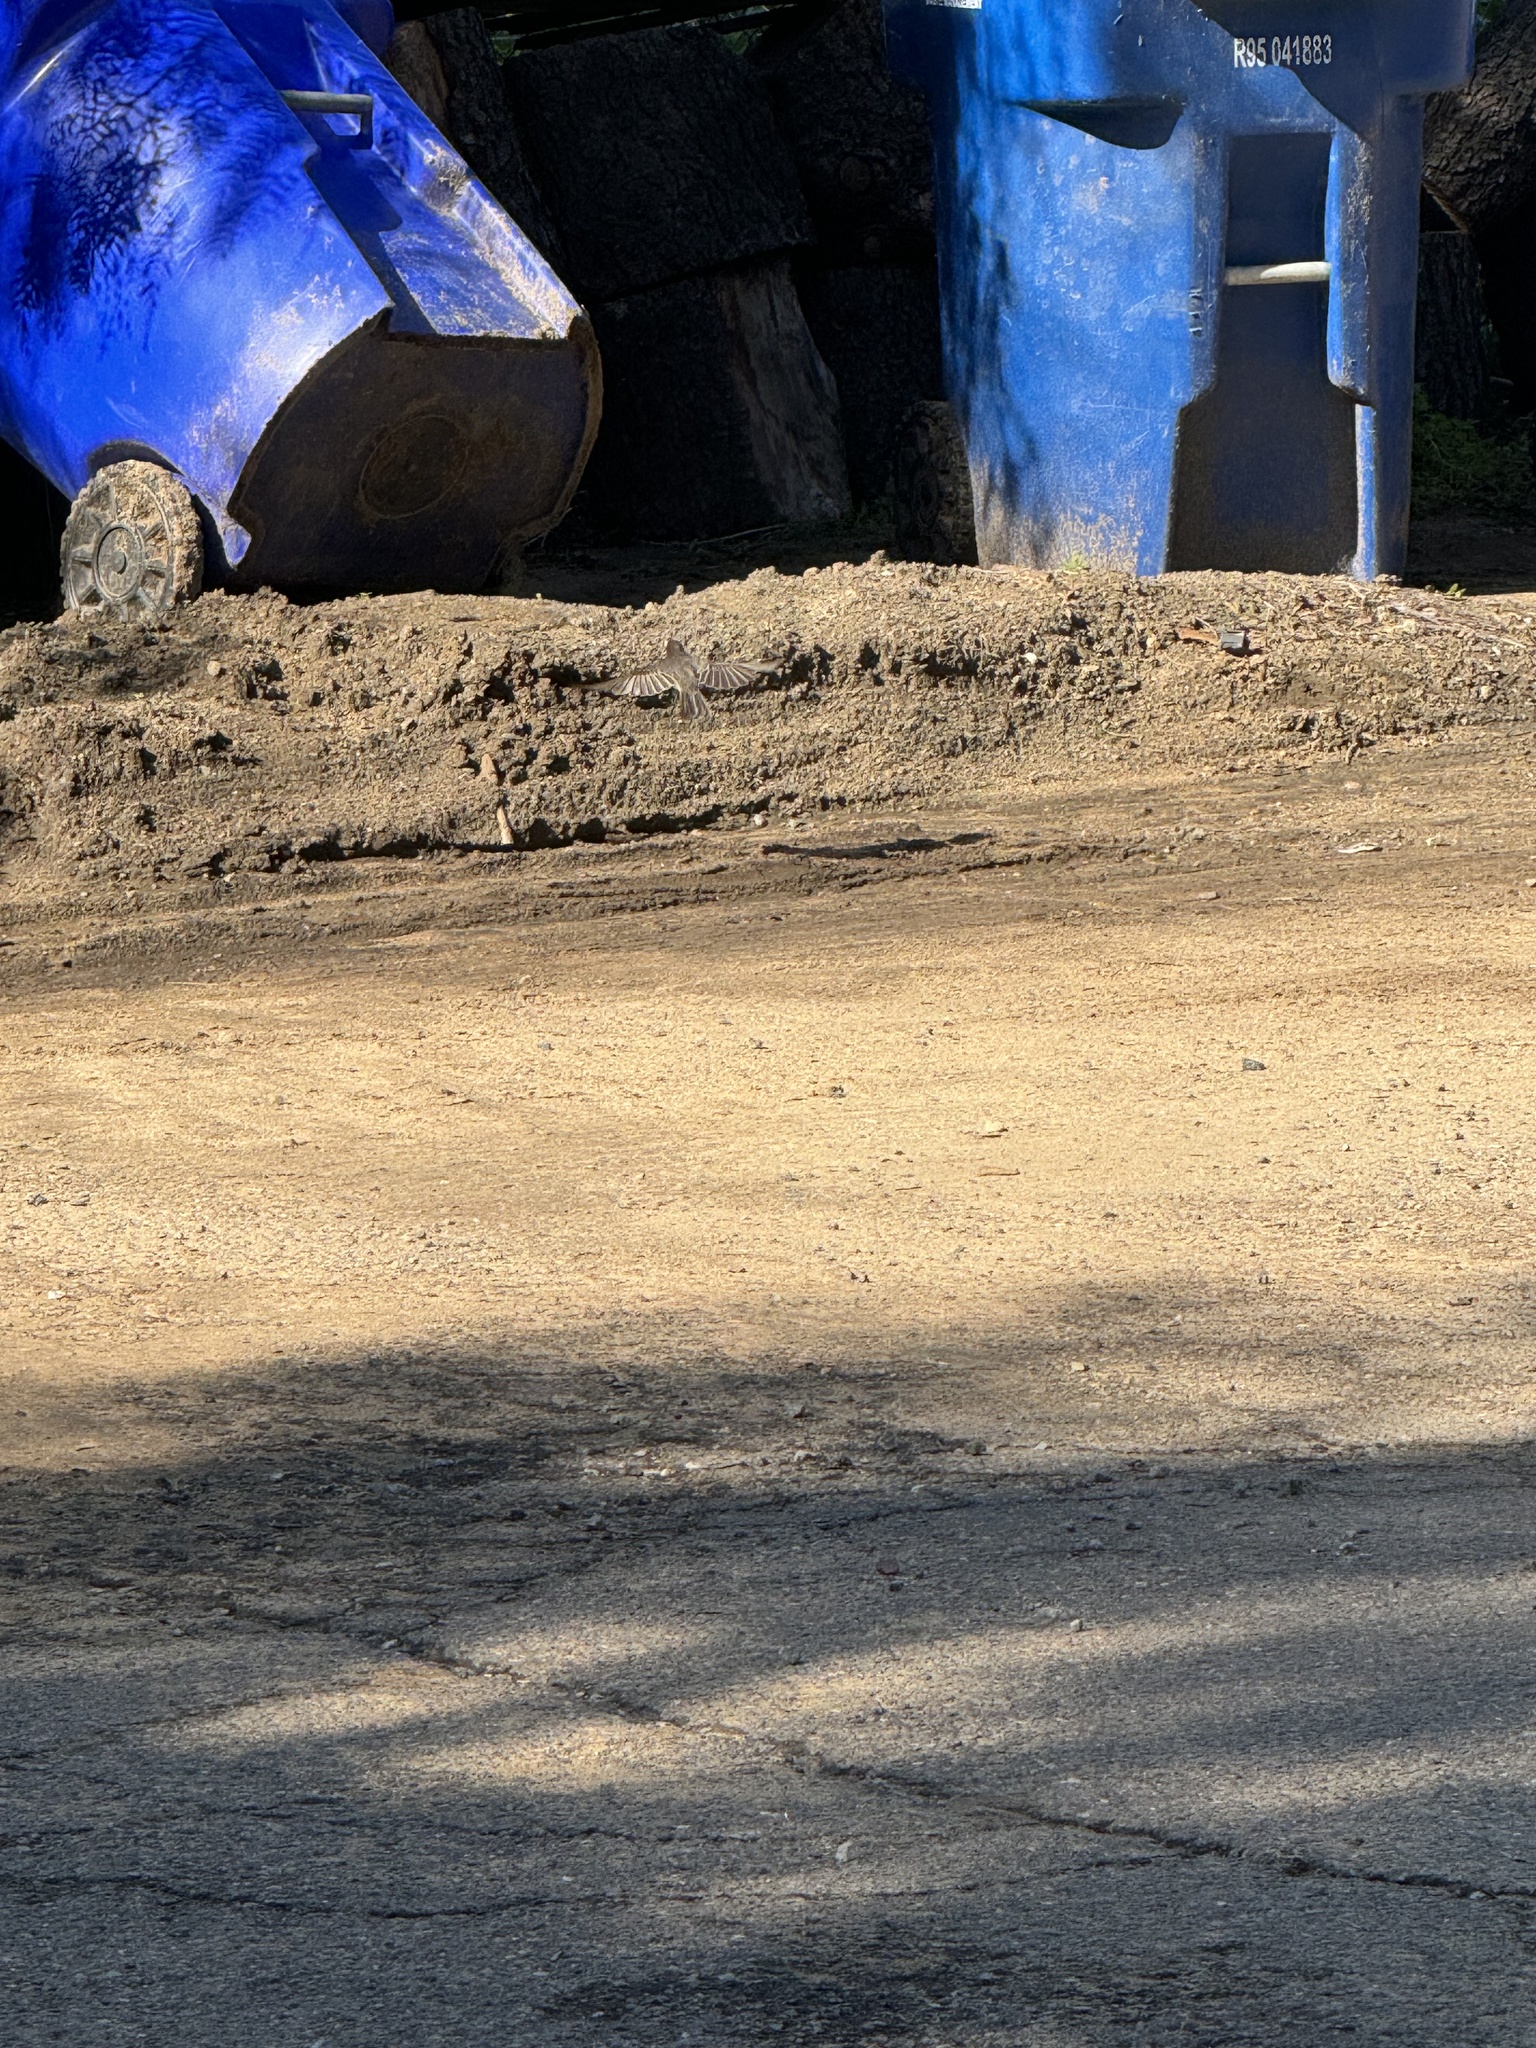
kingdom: Animalia
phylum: Chordata
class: Aves
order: Passeriformes
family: Tyrannidae
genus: Sayornis
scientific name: Sayornis nigricans
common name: Black phoebe
